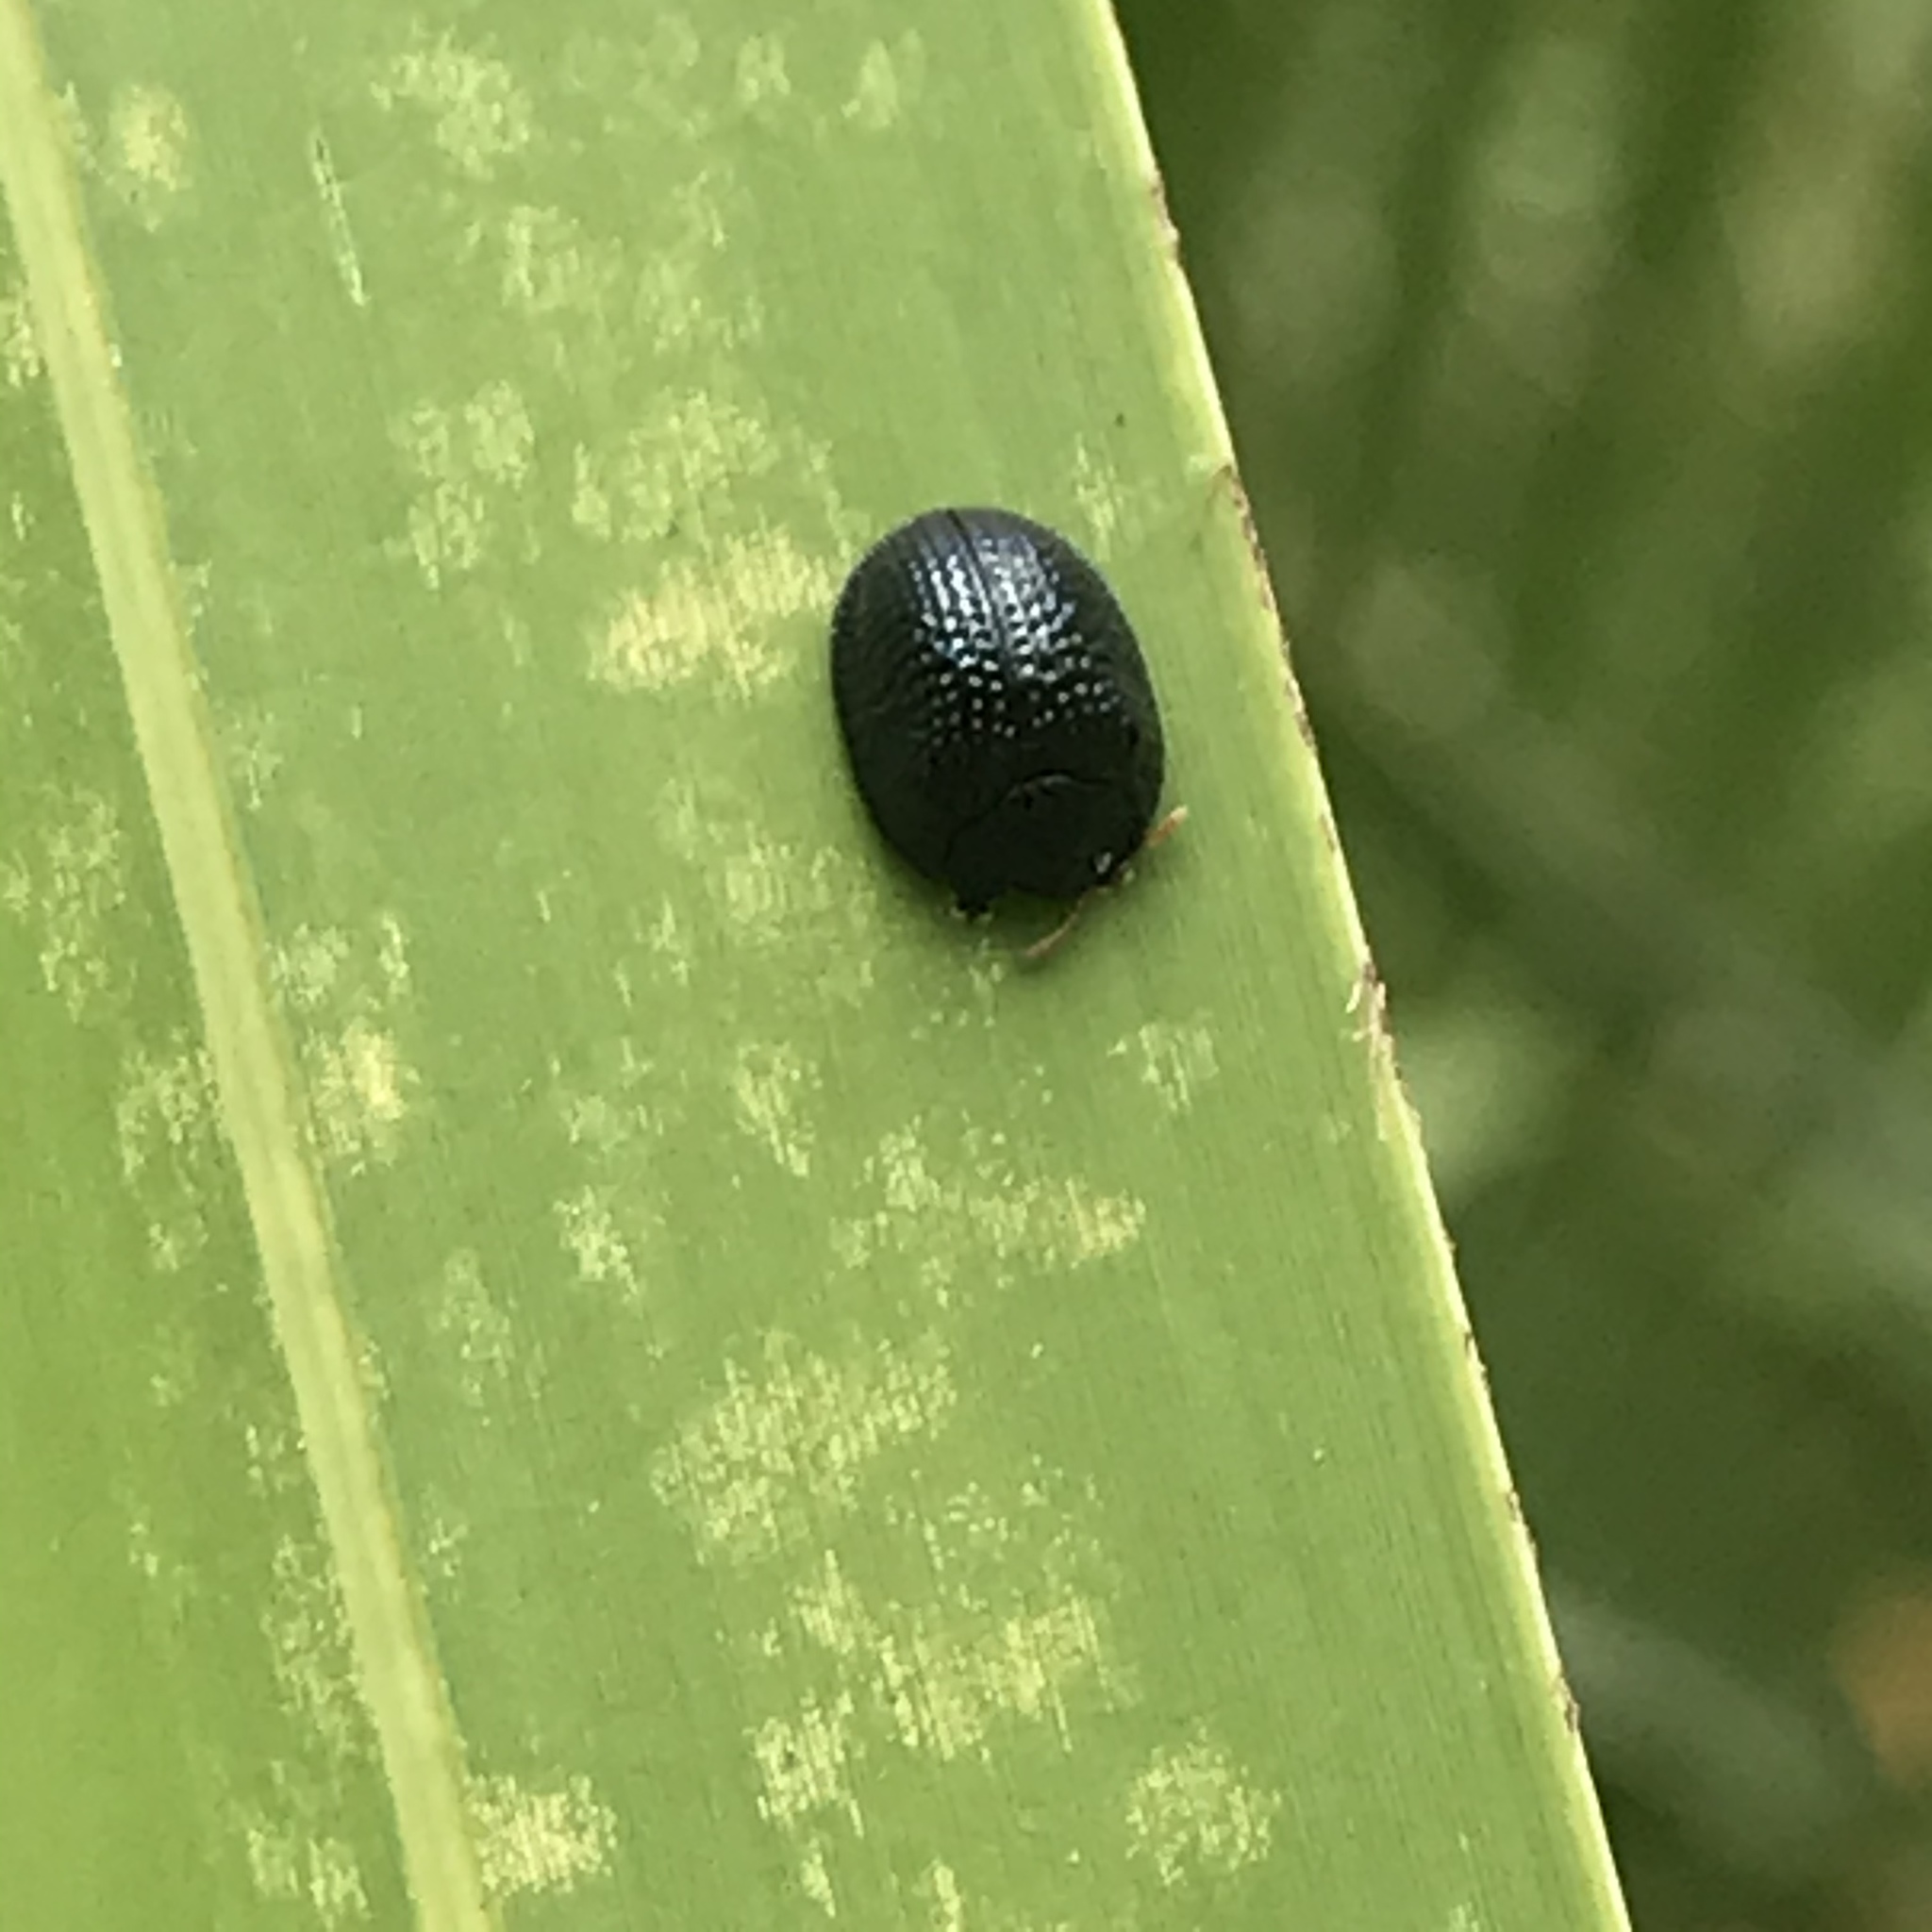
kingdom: Animalia
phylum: Arthropoda
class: Insecta
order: Coleoptera
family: Chrysomelidae
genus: Hemisphaerota
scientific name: Hemisphaerota cyanea
